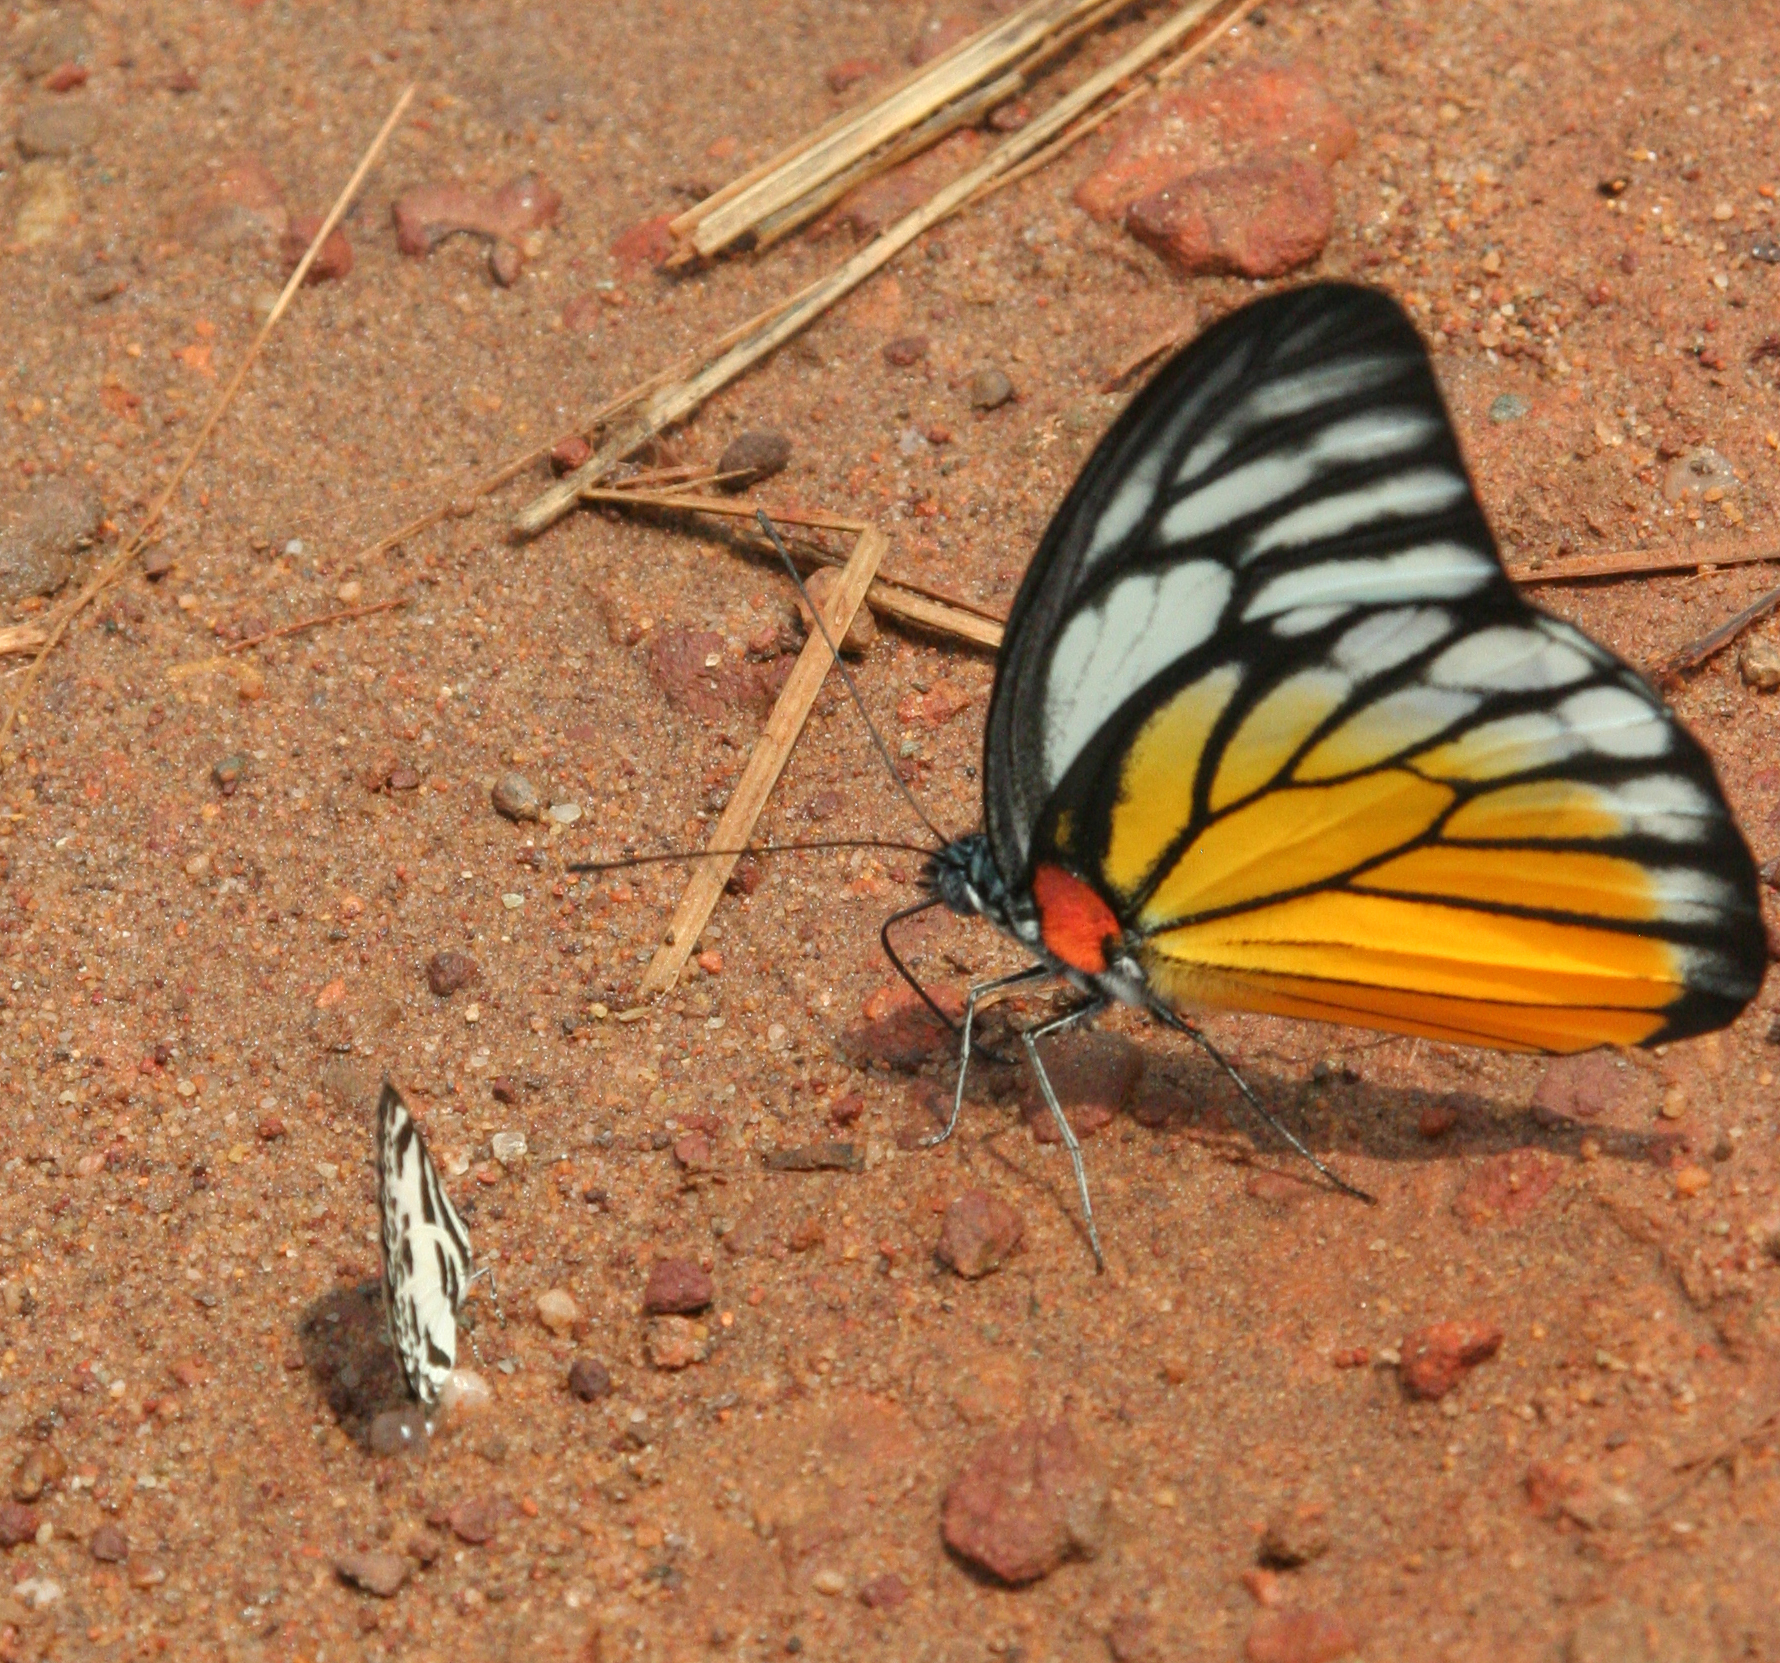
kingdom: Animalia
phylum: Arthropoda
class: Insecta
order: Lepidoptera
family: Pieridae
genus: Prioneris
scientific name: Prioneris
